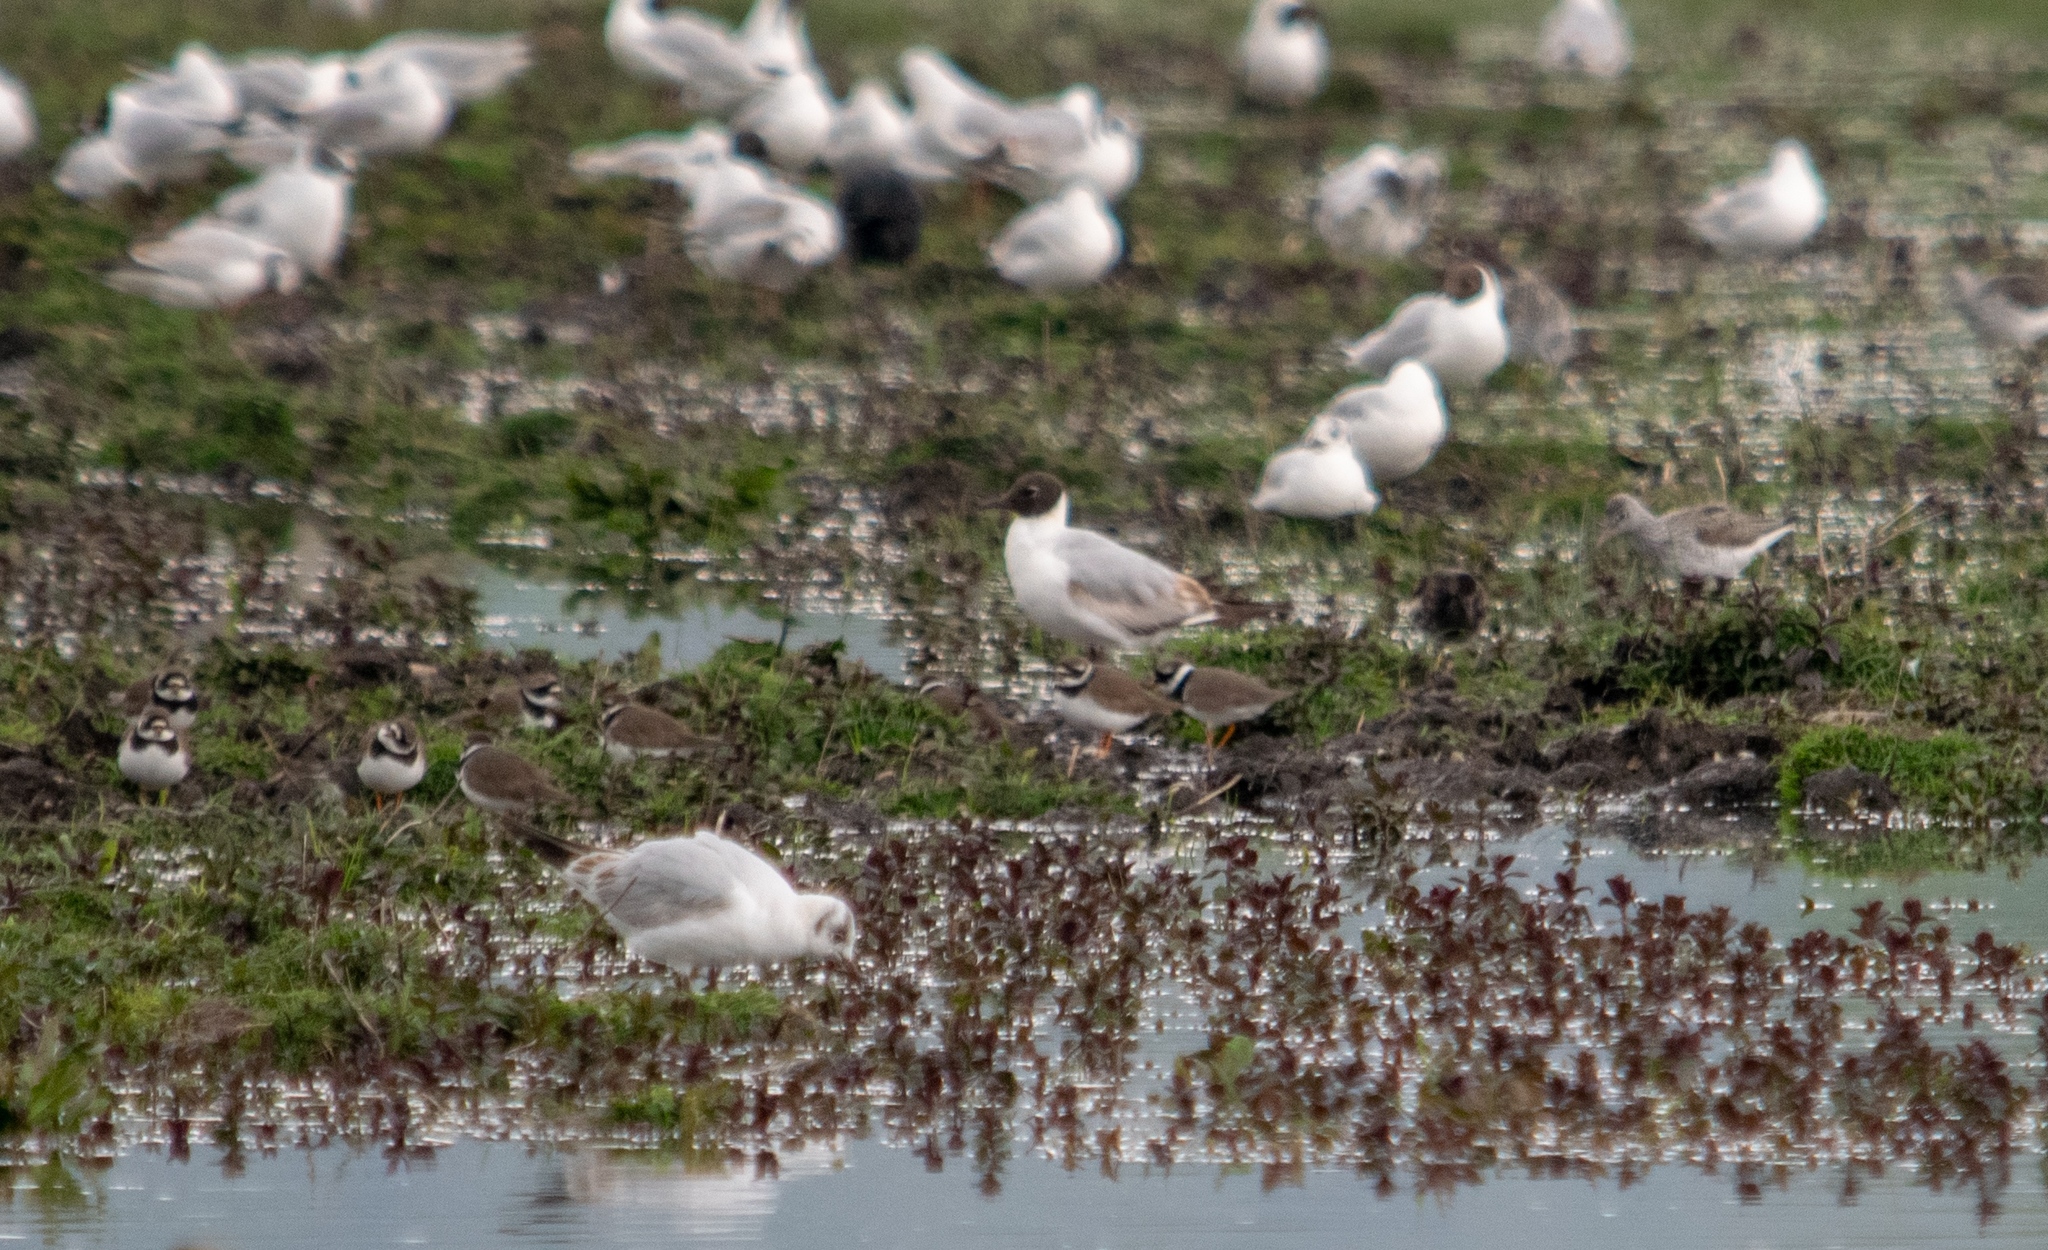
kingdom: Animalia
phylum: Chordata
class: Aves
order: Charadriiformes
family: Charadriidae
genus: Charadrius
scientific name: Charadrius hiaticula
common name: Common ringed plover
